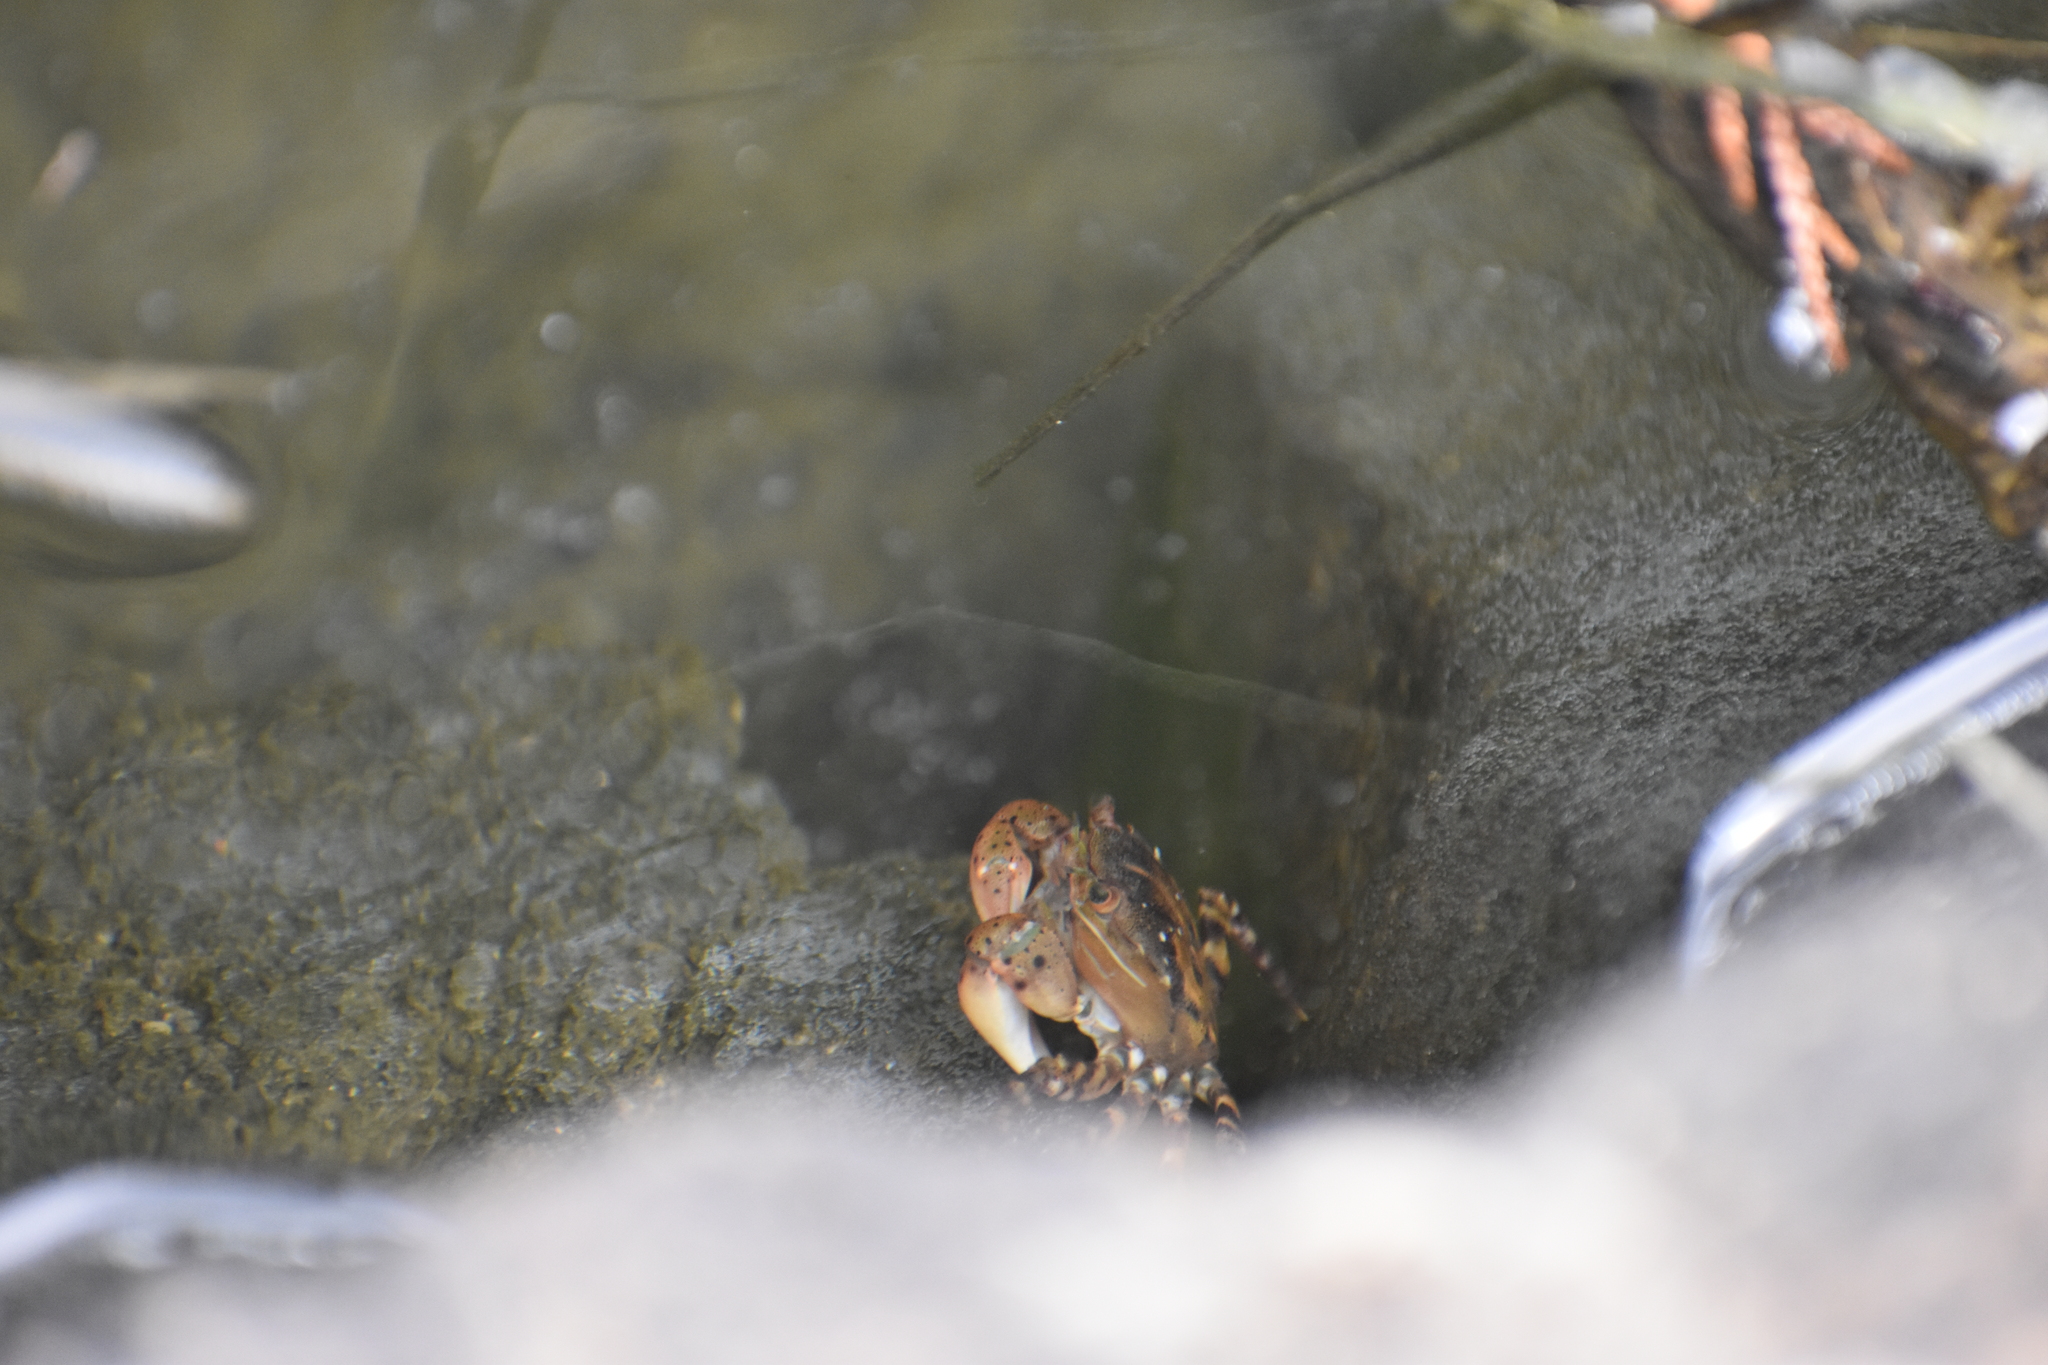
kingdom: Animalia
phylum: Arthropoda
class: Malacostraca
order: Decapoda
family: Varunidae
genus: Hemigrapsus
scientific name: Hemigrapsus sanguineus
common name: Asian shore crab
